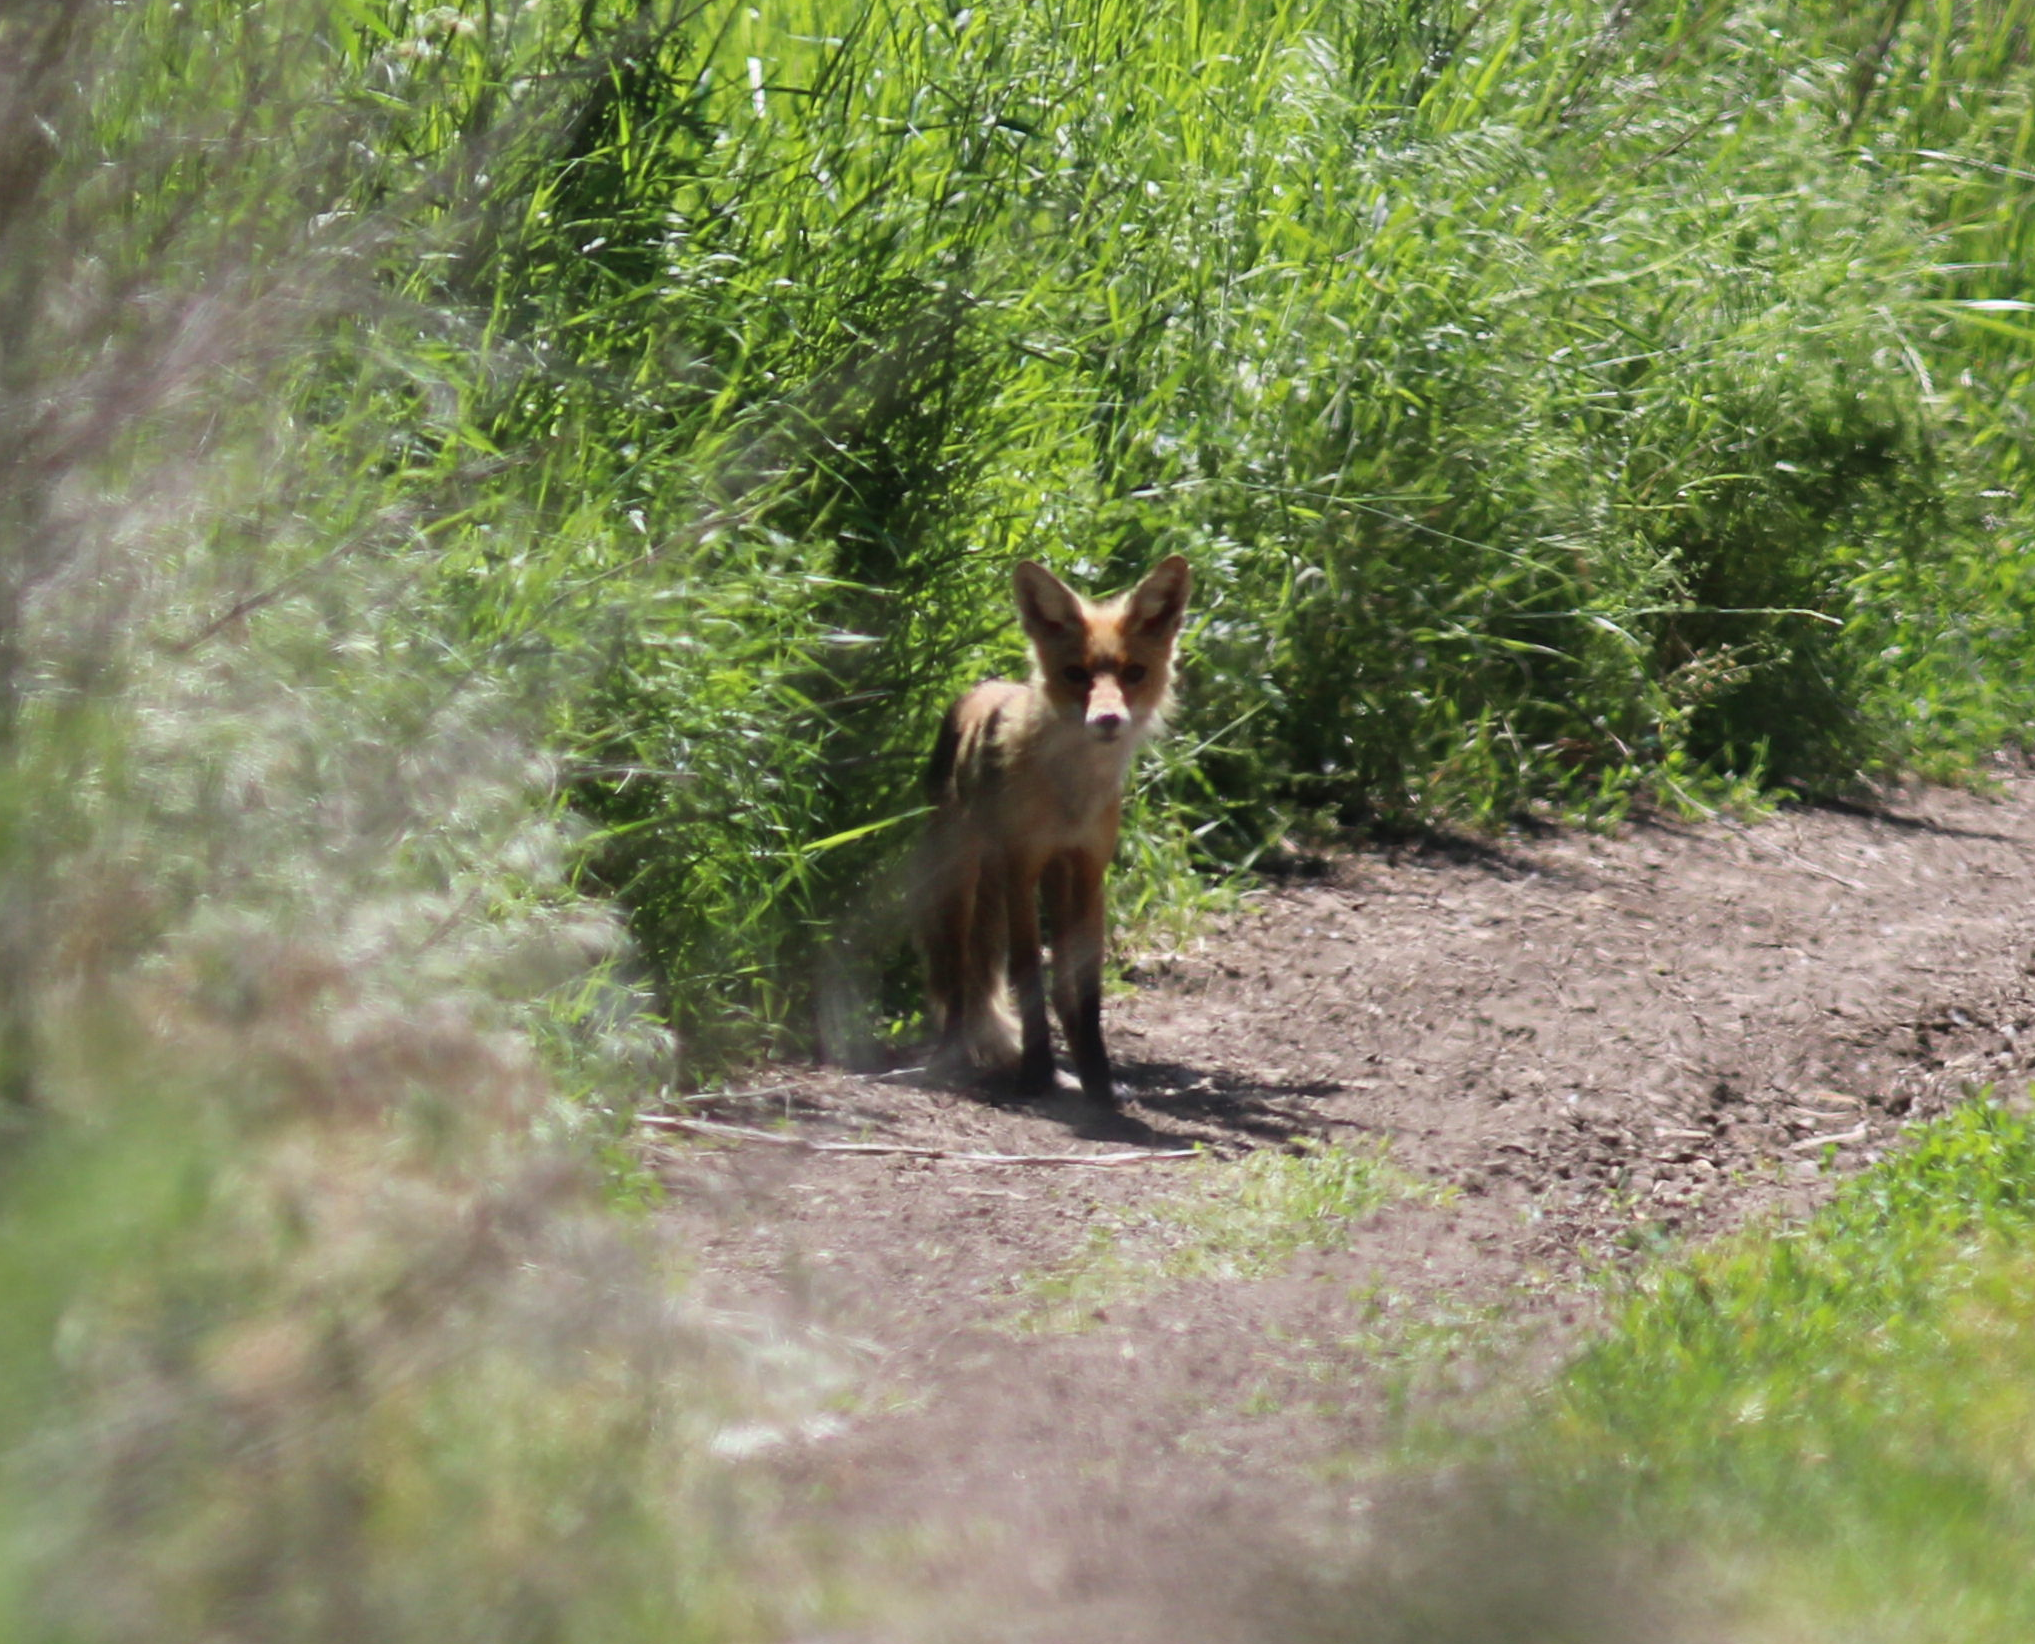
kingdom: Animalia
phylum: Chordata
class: Mammalia
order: Carnivora
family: Canidae
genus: Vulpes
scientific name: Vulpes vulpes
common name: Red fox
